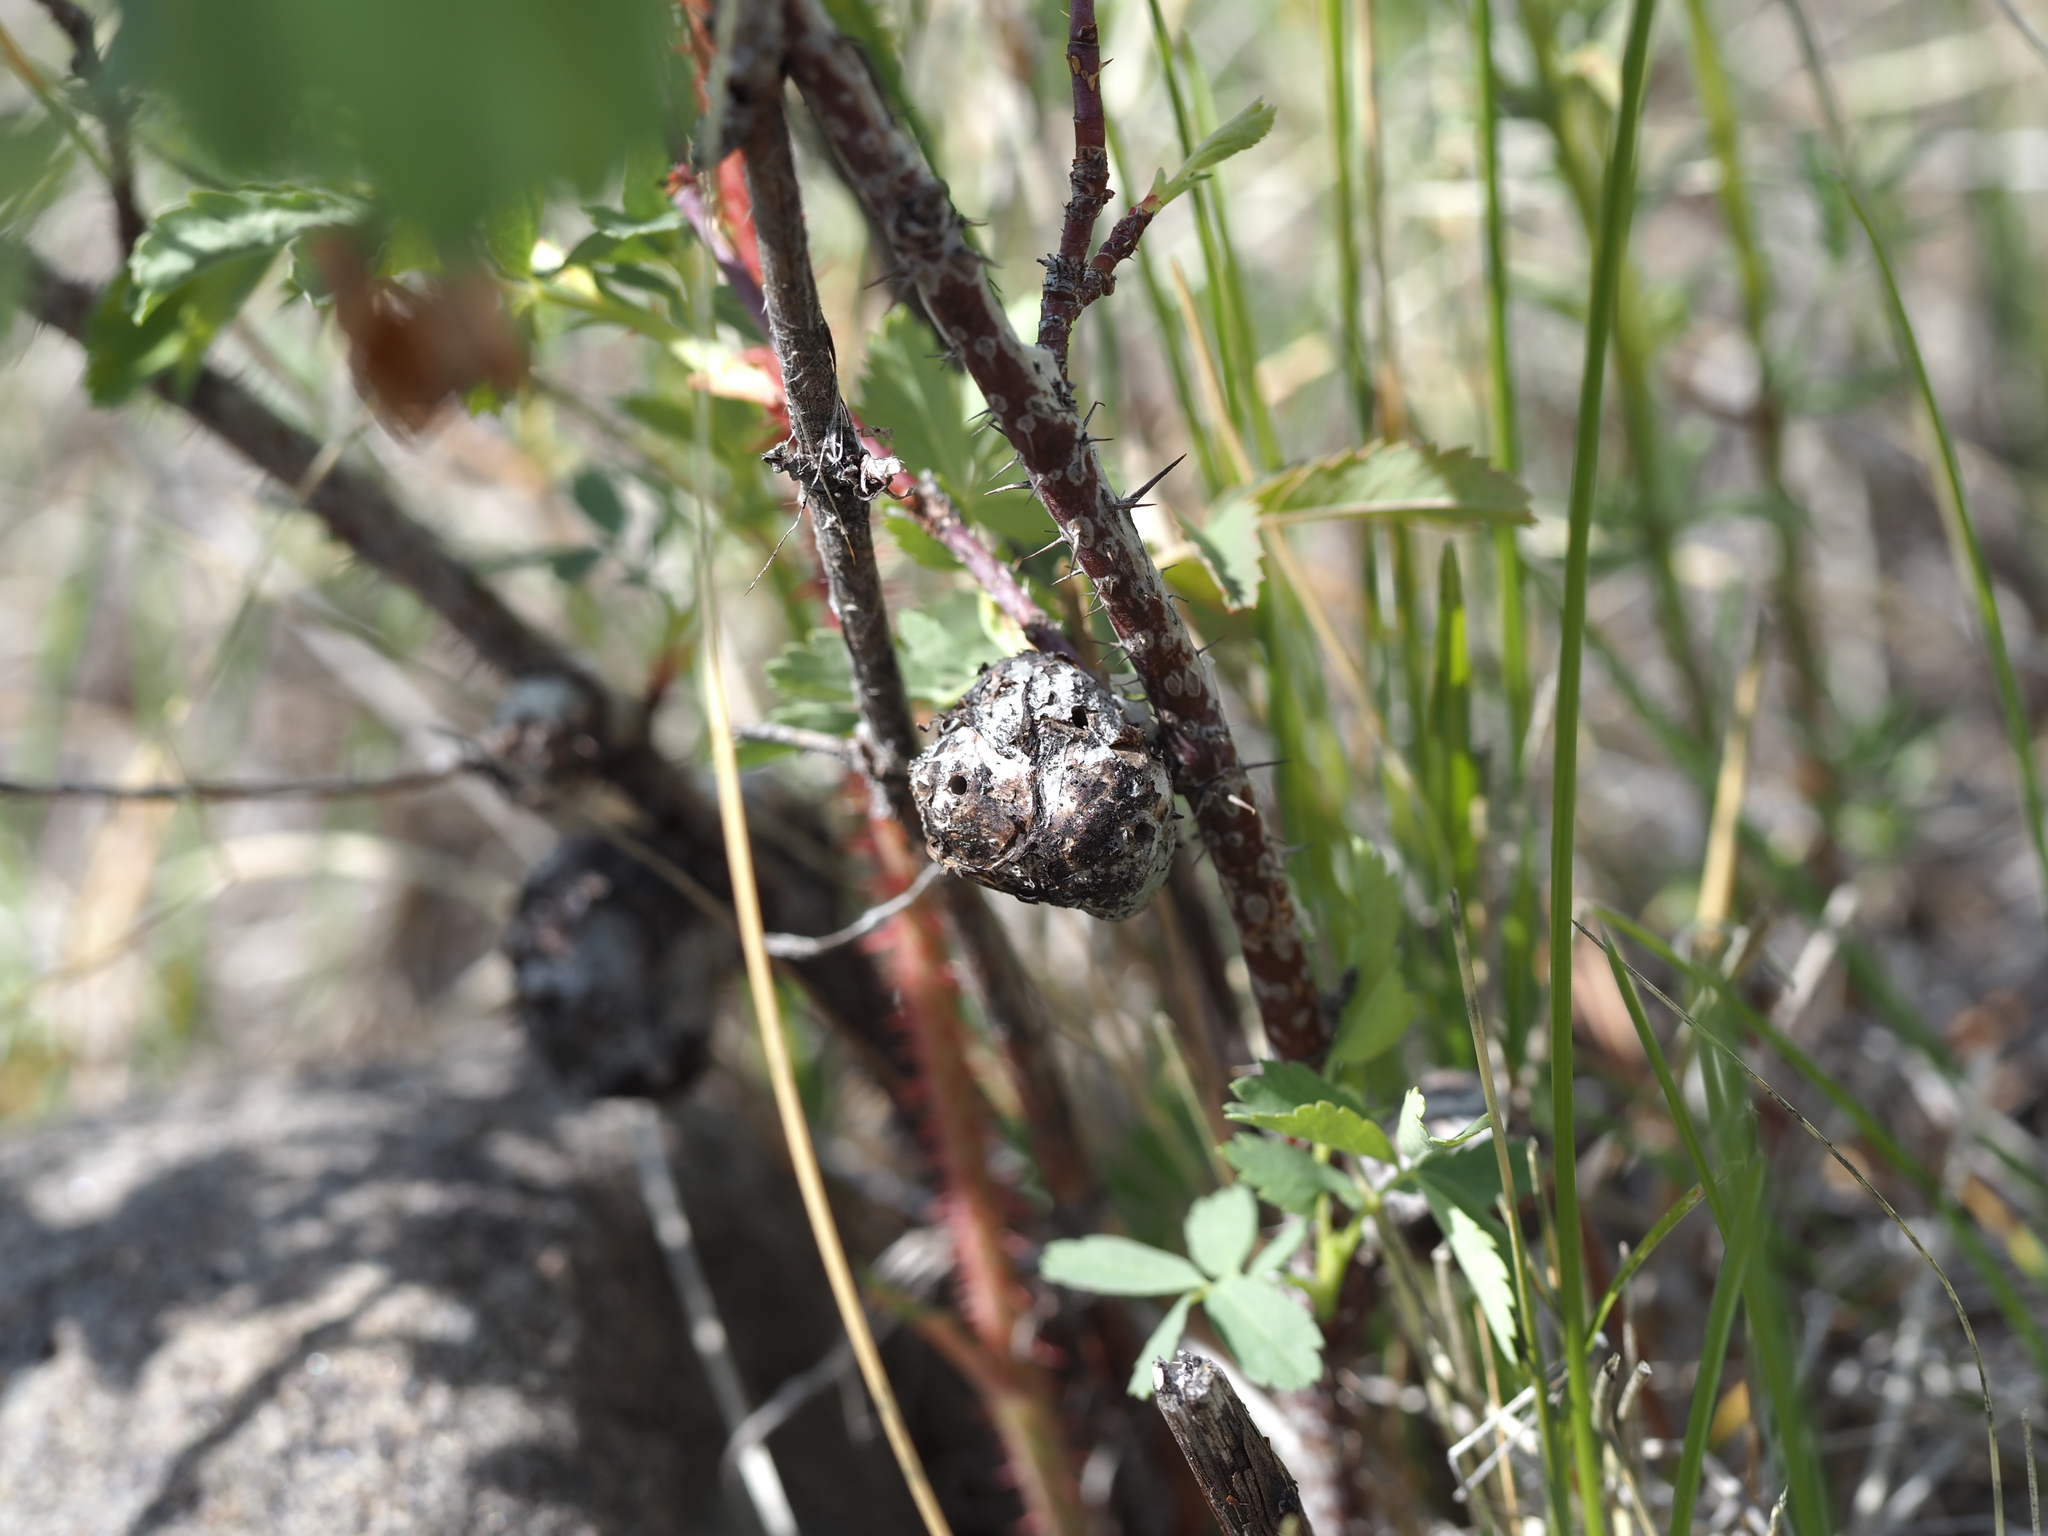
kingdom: Animalia
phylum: Arthropoda
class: Insecta
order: Hymenoptera
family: Cynipidae
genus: Diplolepis
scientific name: Diplolepis spinosa
